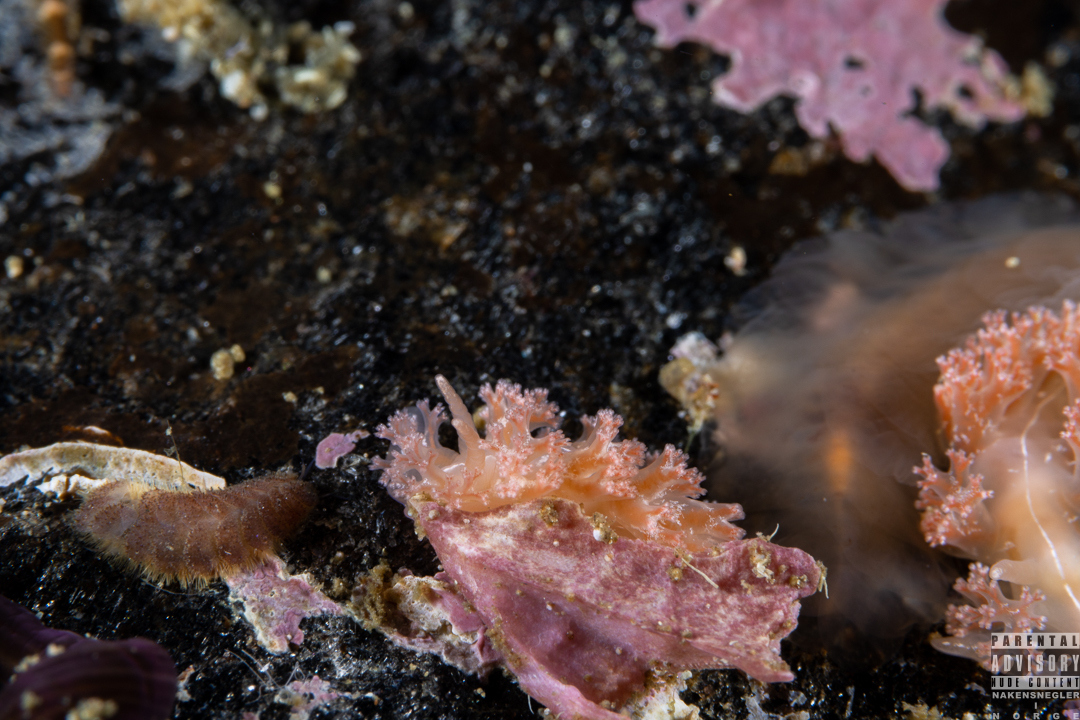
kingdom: Animalia
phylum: Mollusca
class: Gastropoda
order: Nudibranchia
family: Heroidae
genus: Hero
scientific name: Hero formosa
